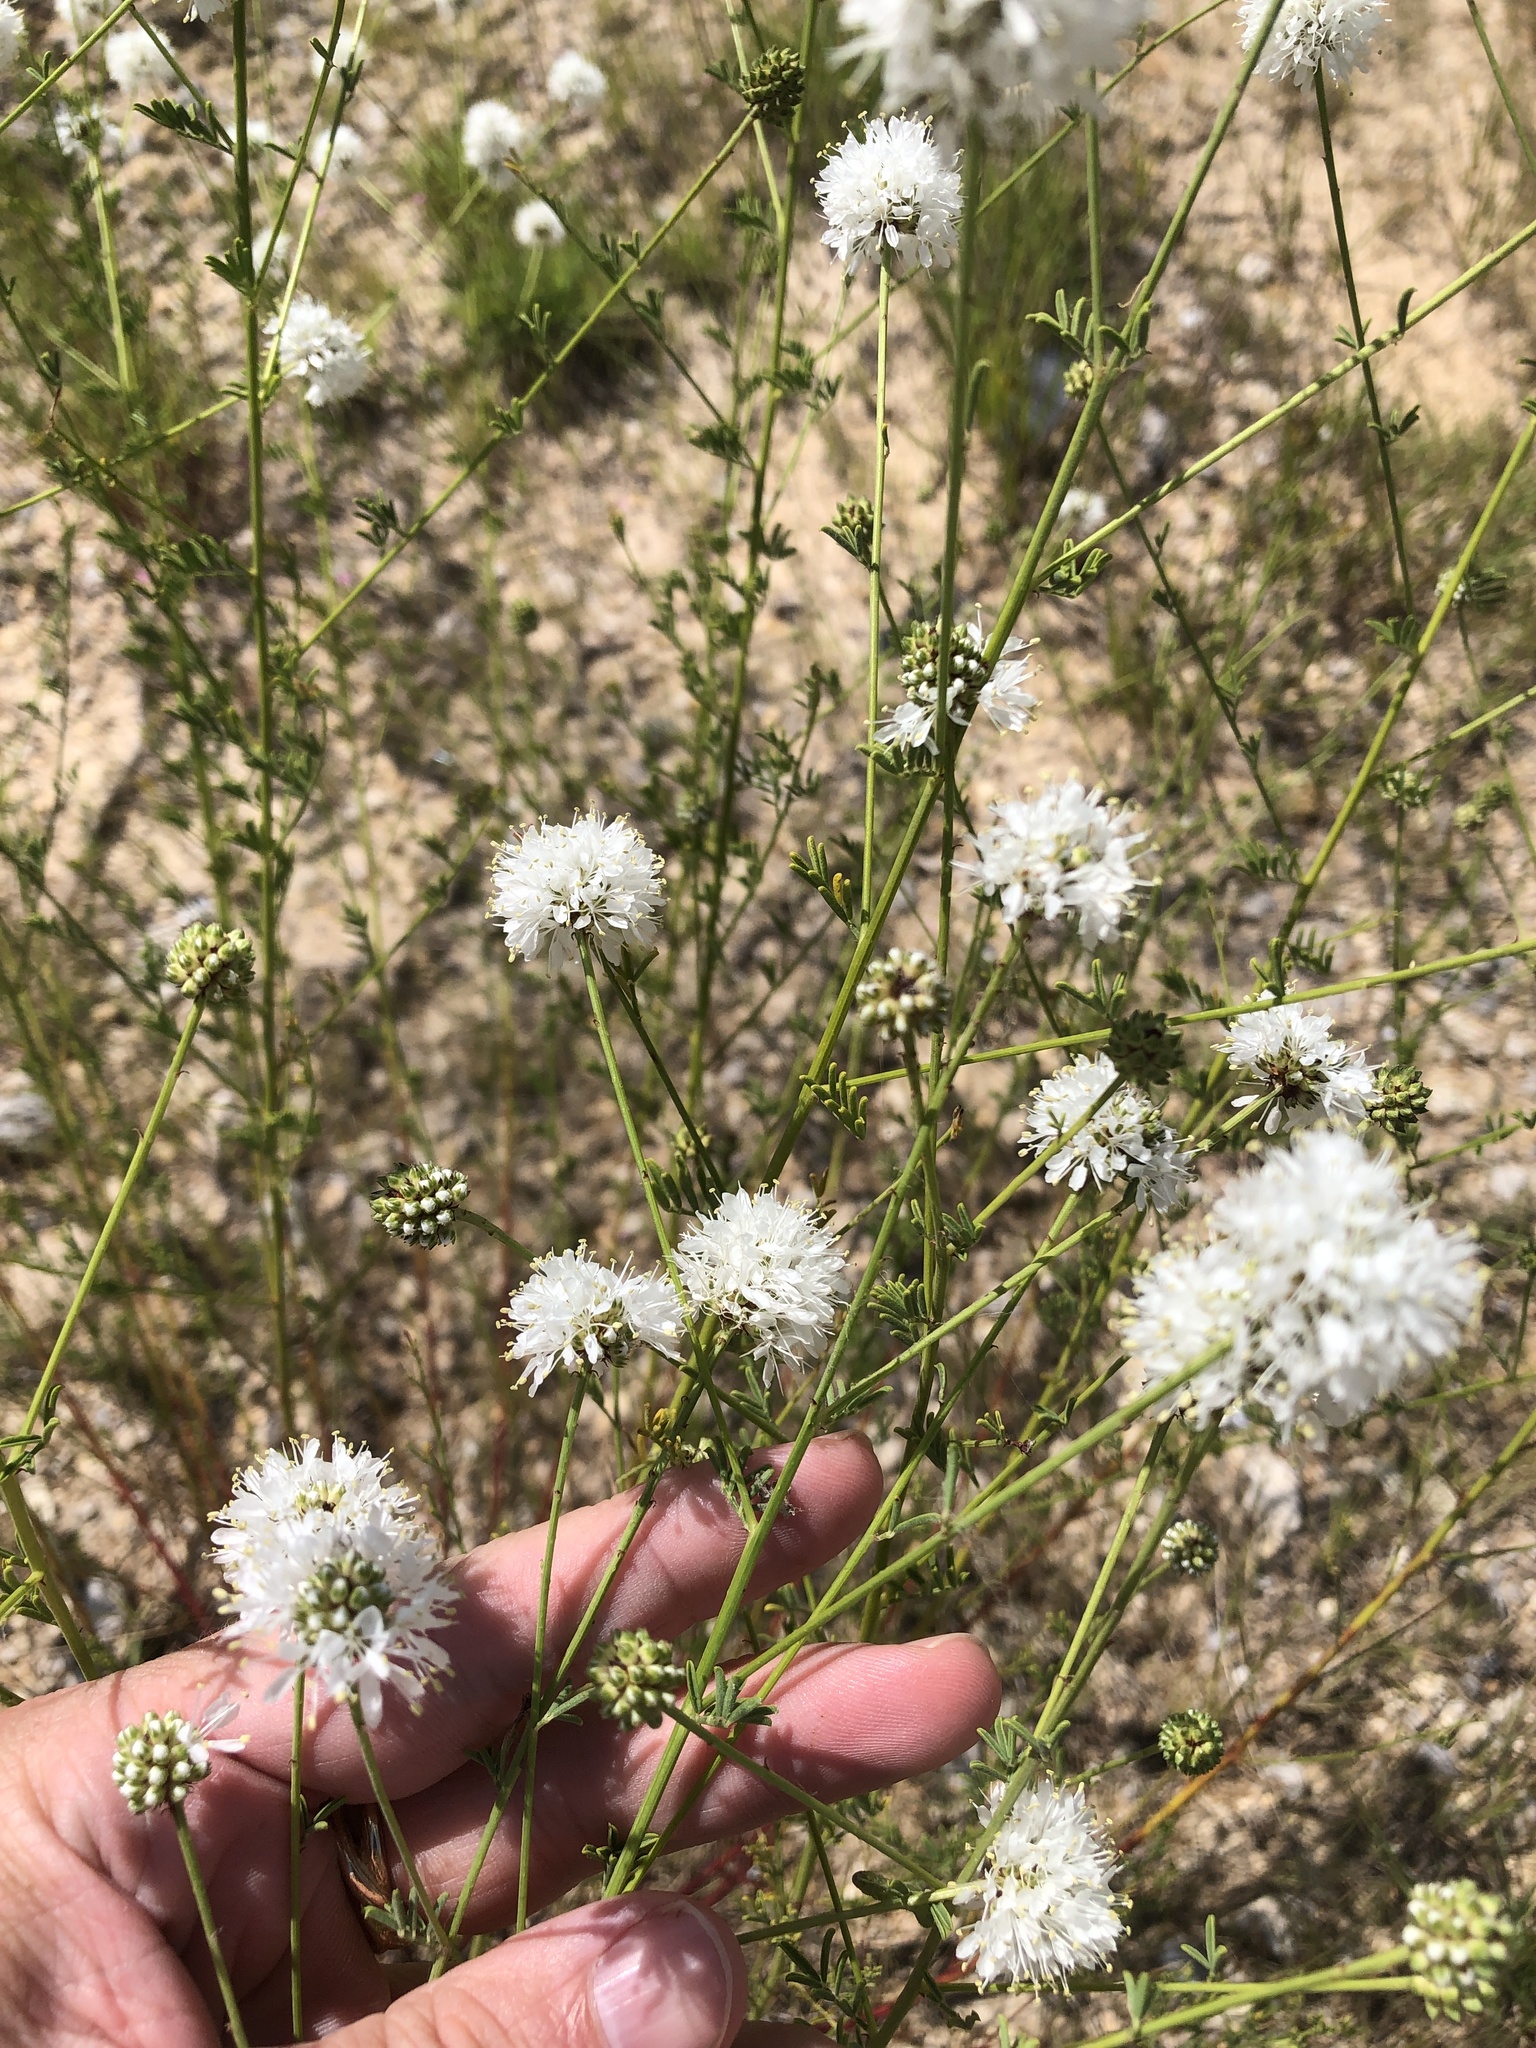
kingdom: Plantae
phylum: Tracheophyta
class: Magnoliopsida
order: Fabales
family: Fabaceae
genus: Dalea
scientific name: Dalea multiflora
